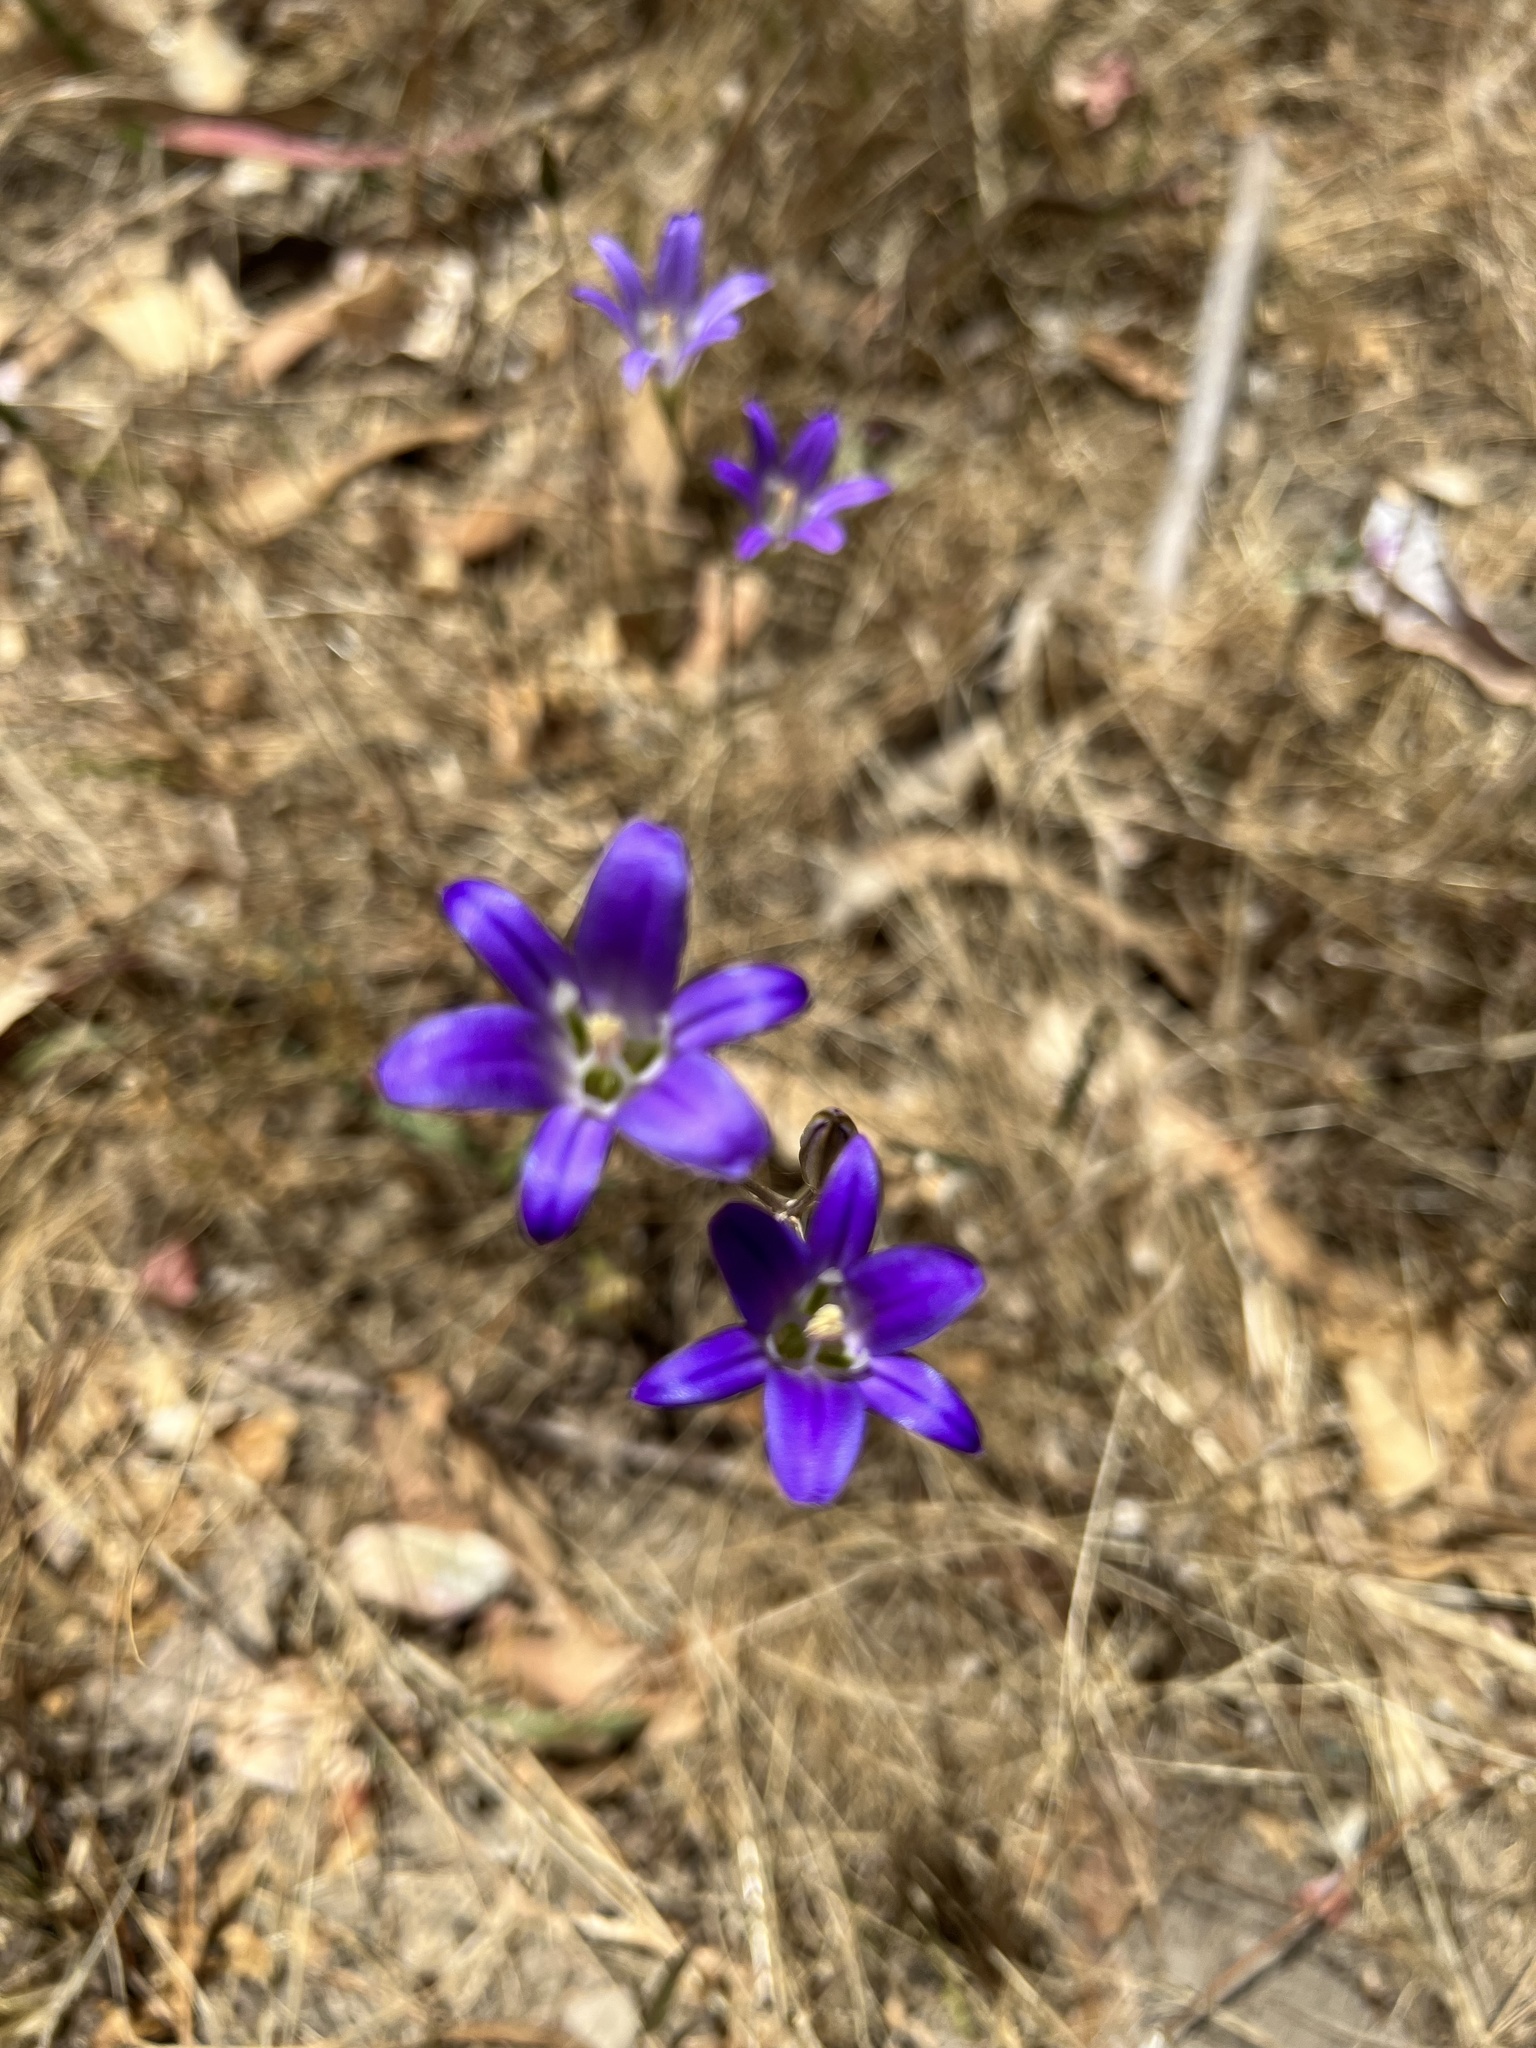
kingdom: Plantae
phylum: Tracheophyta
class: Liliopsida
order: Asparagales
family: Asparagaceae
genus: Brodiaea
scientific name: Brodiaea elegans
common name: Elegant cluster-lily
